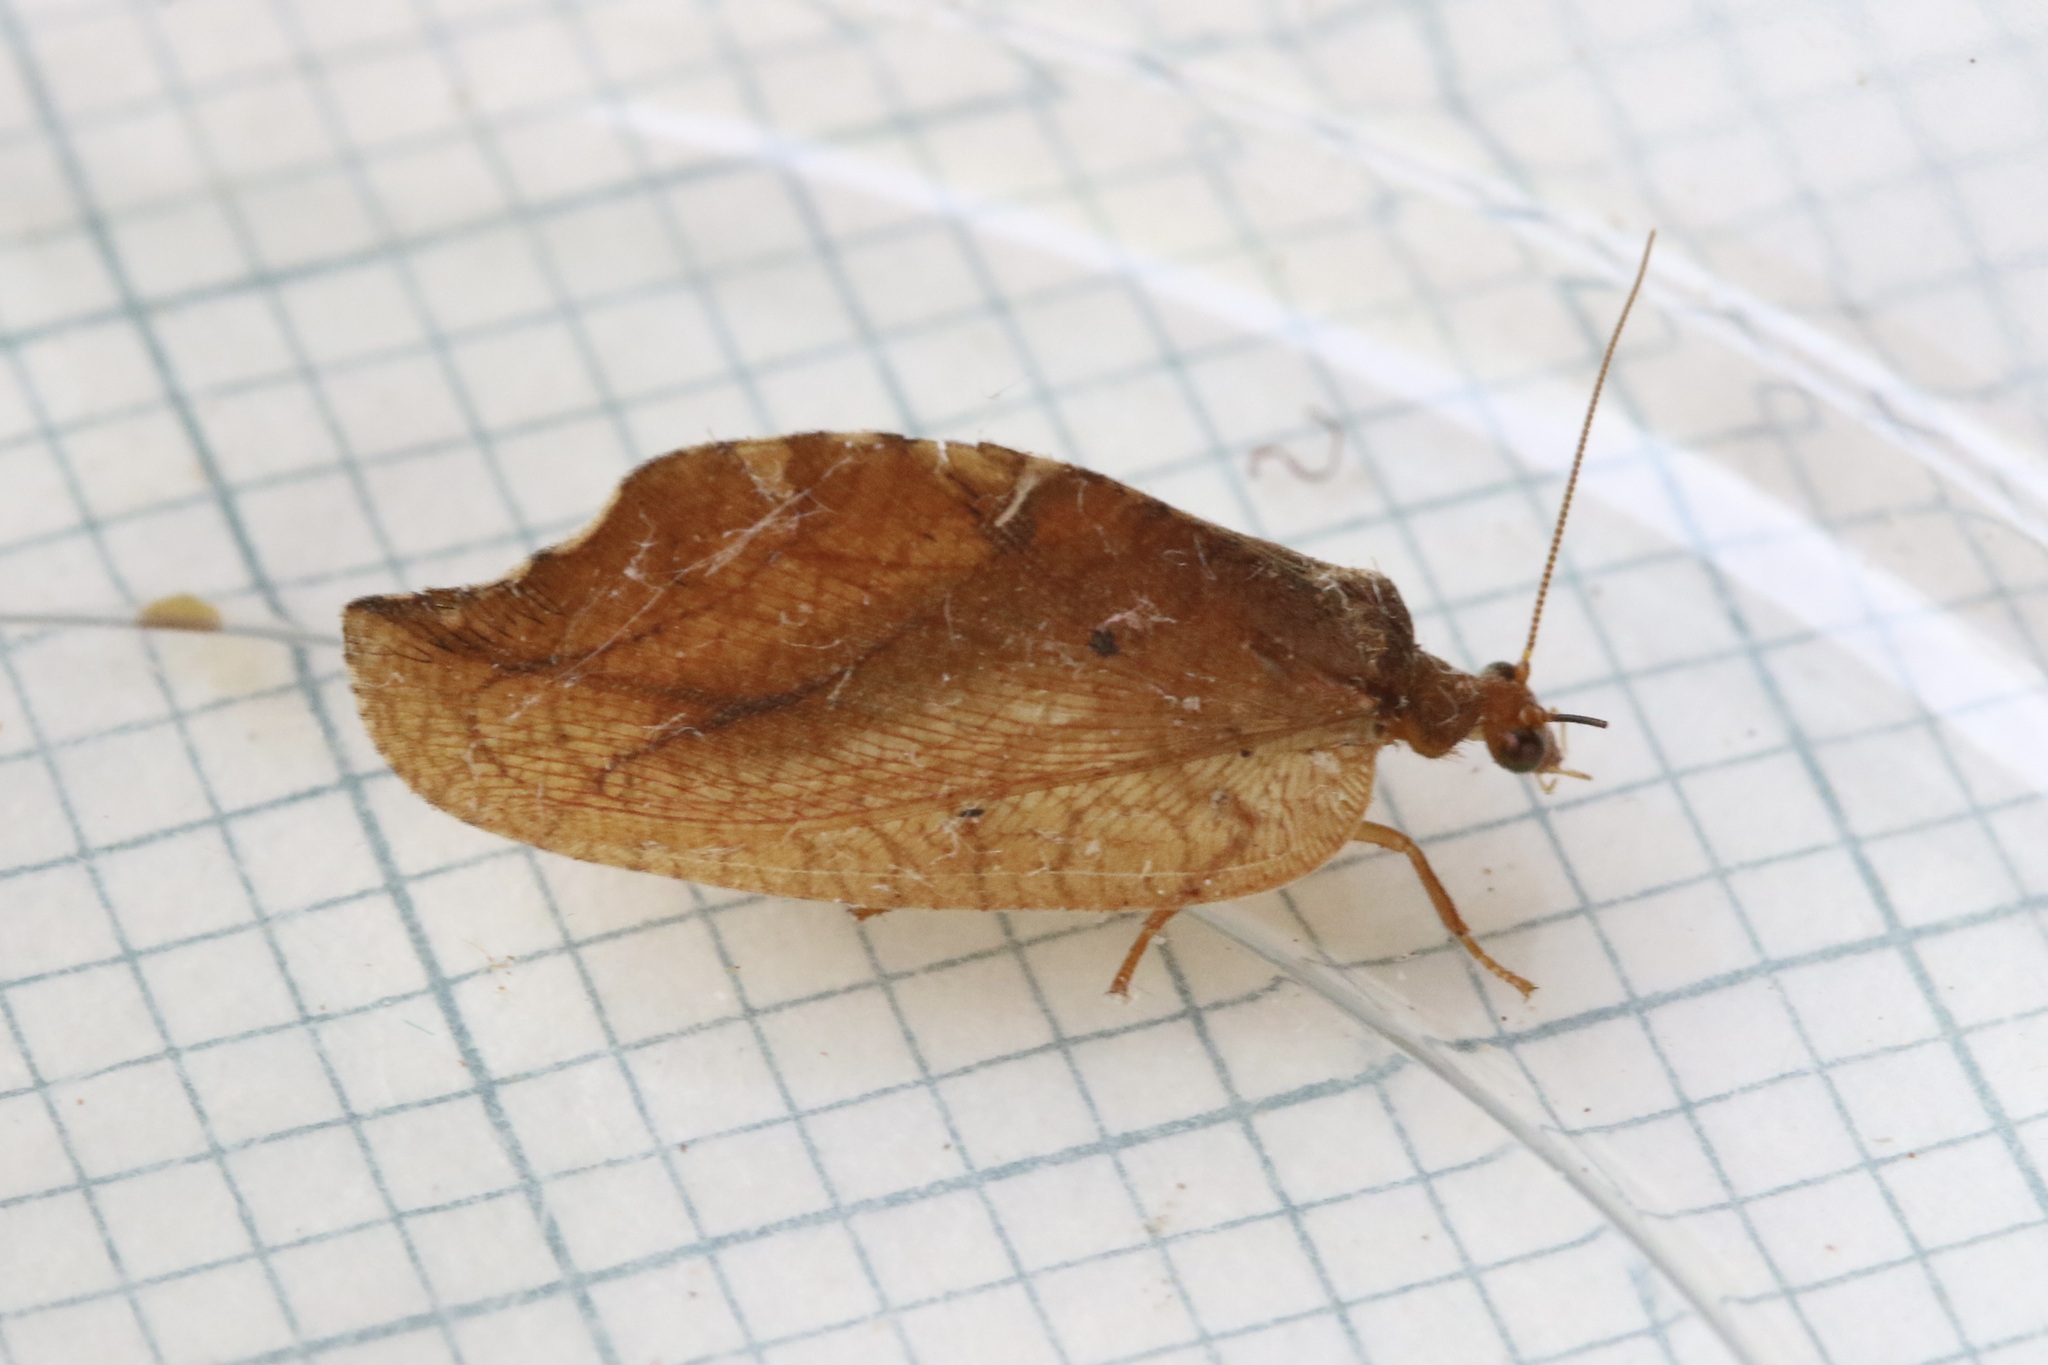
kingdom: Animalia
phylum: Arthropoda
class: Insecta
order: Neuroptera
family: Hemerobiidae
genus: Drepanepteryx
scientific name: Drepanepteryx phalaenoides
